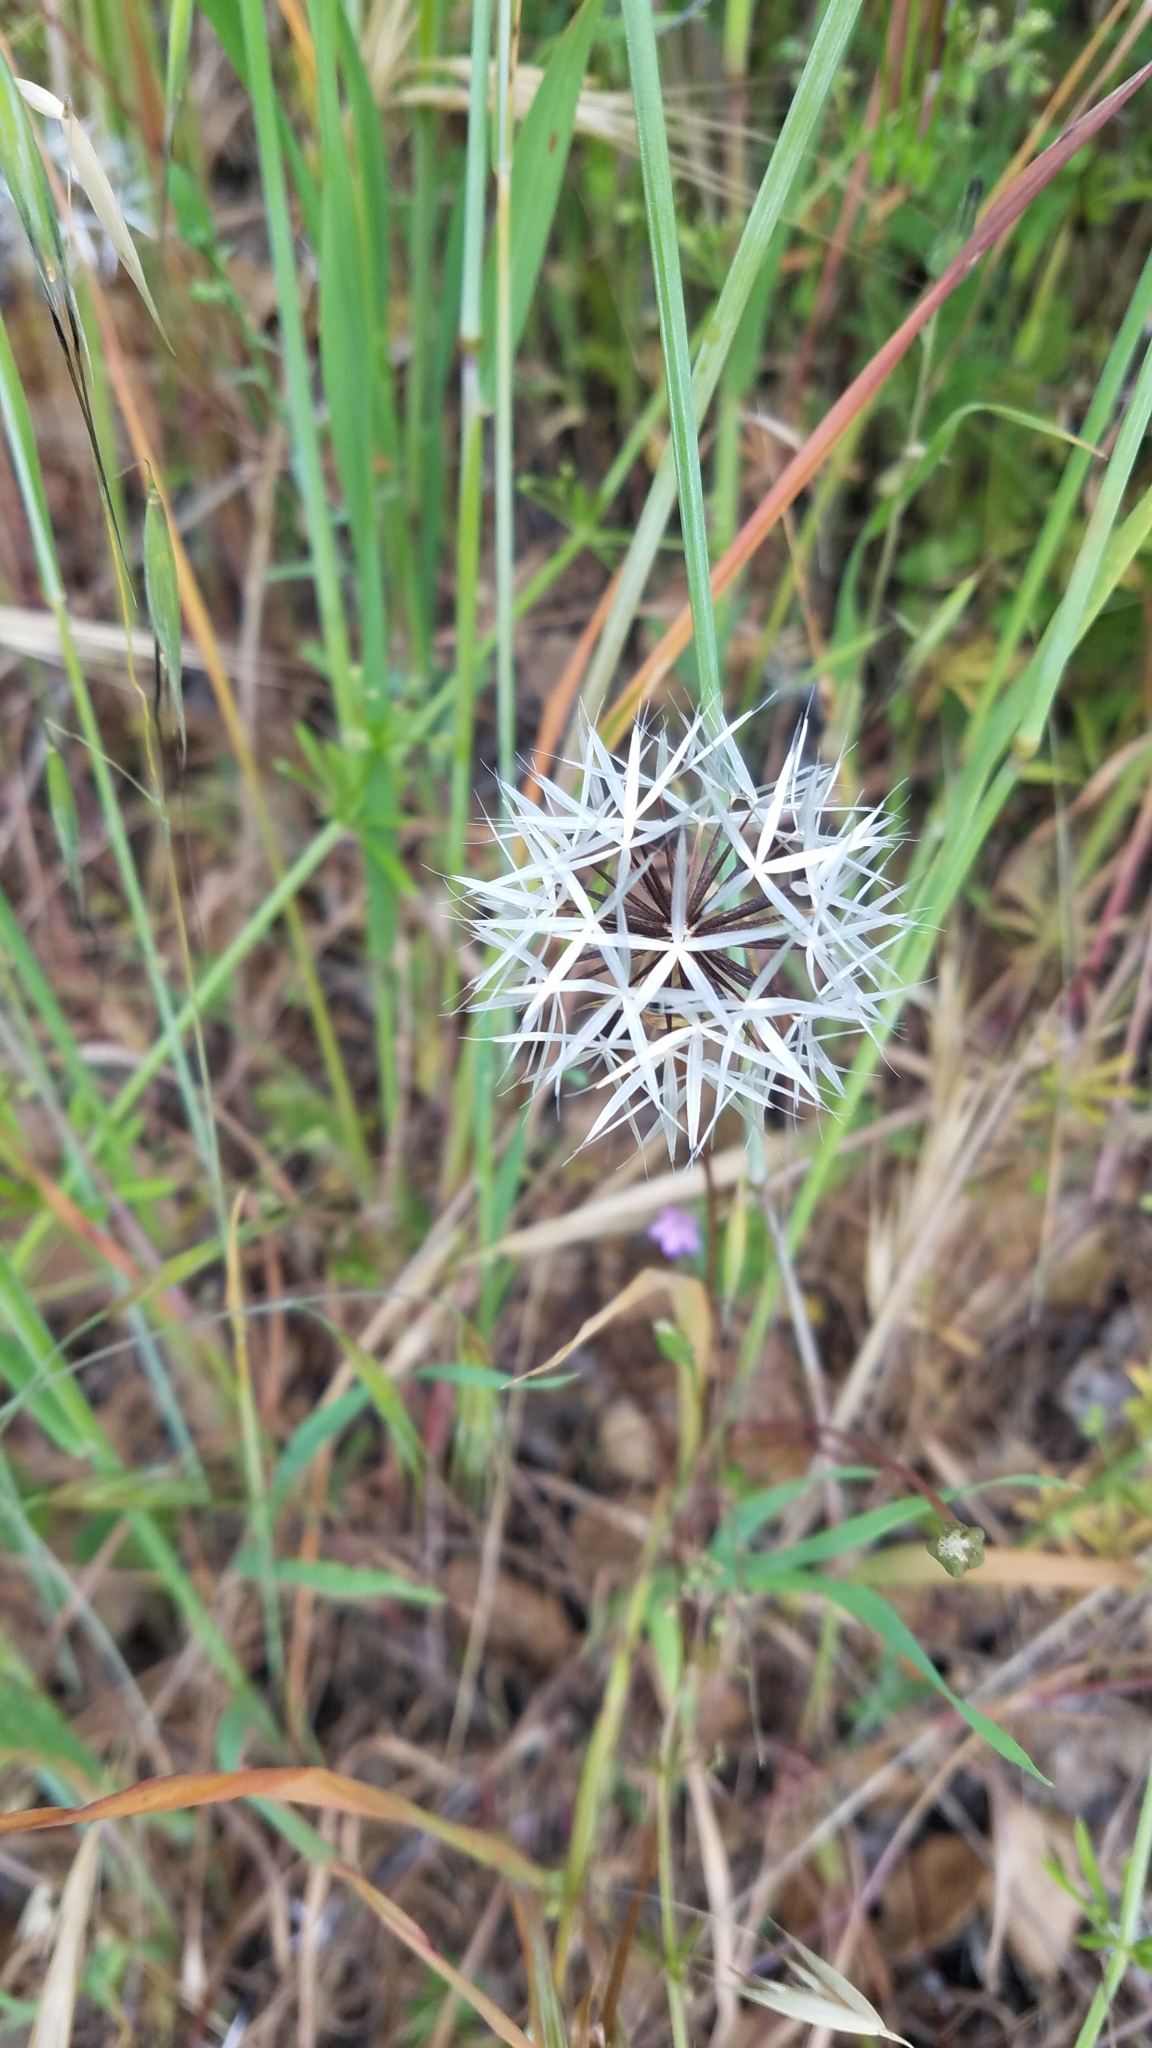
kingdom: Plantae
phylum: Tracheophyta
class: Magnoliopsida
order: Asterales
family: Asteraceae
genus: Microseris
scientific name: Microseris lindleyi
